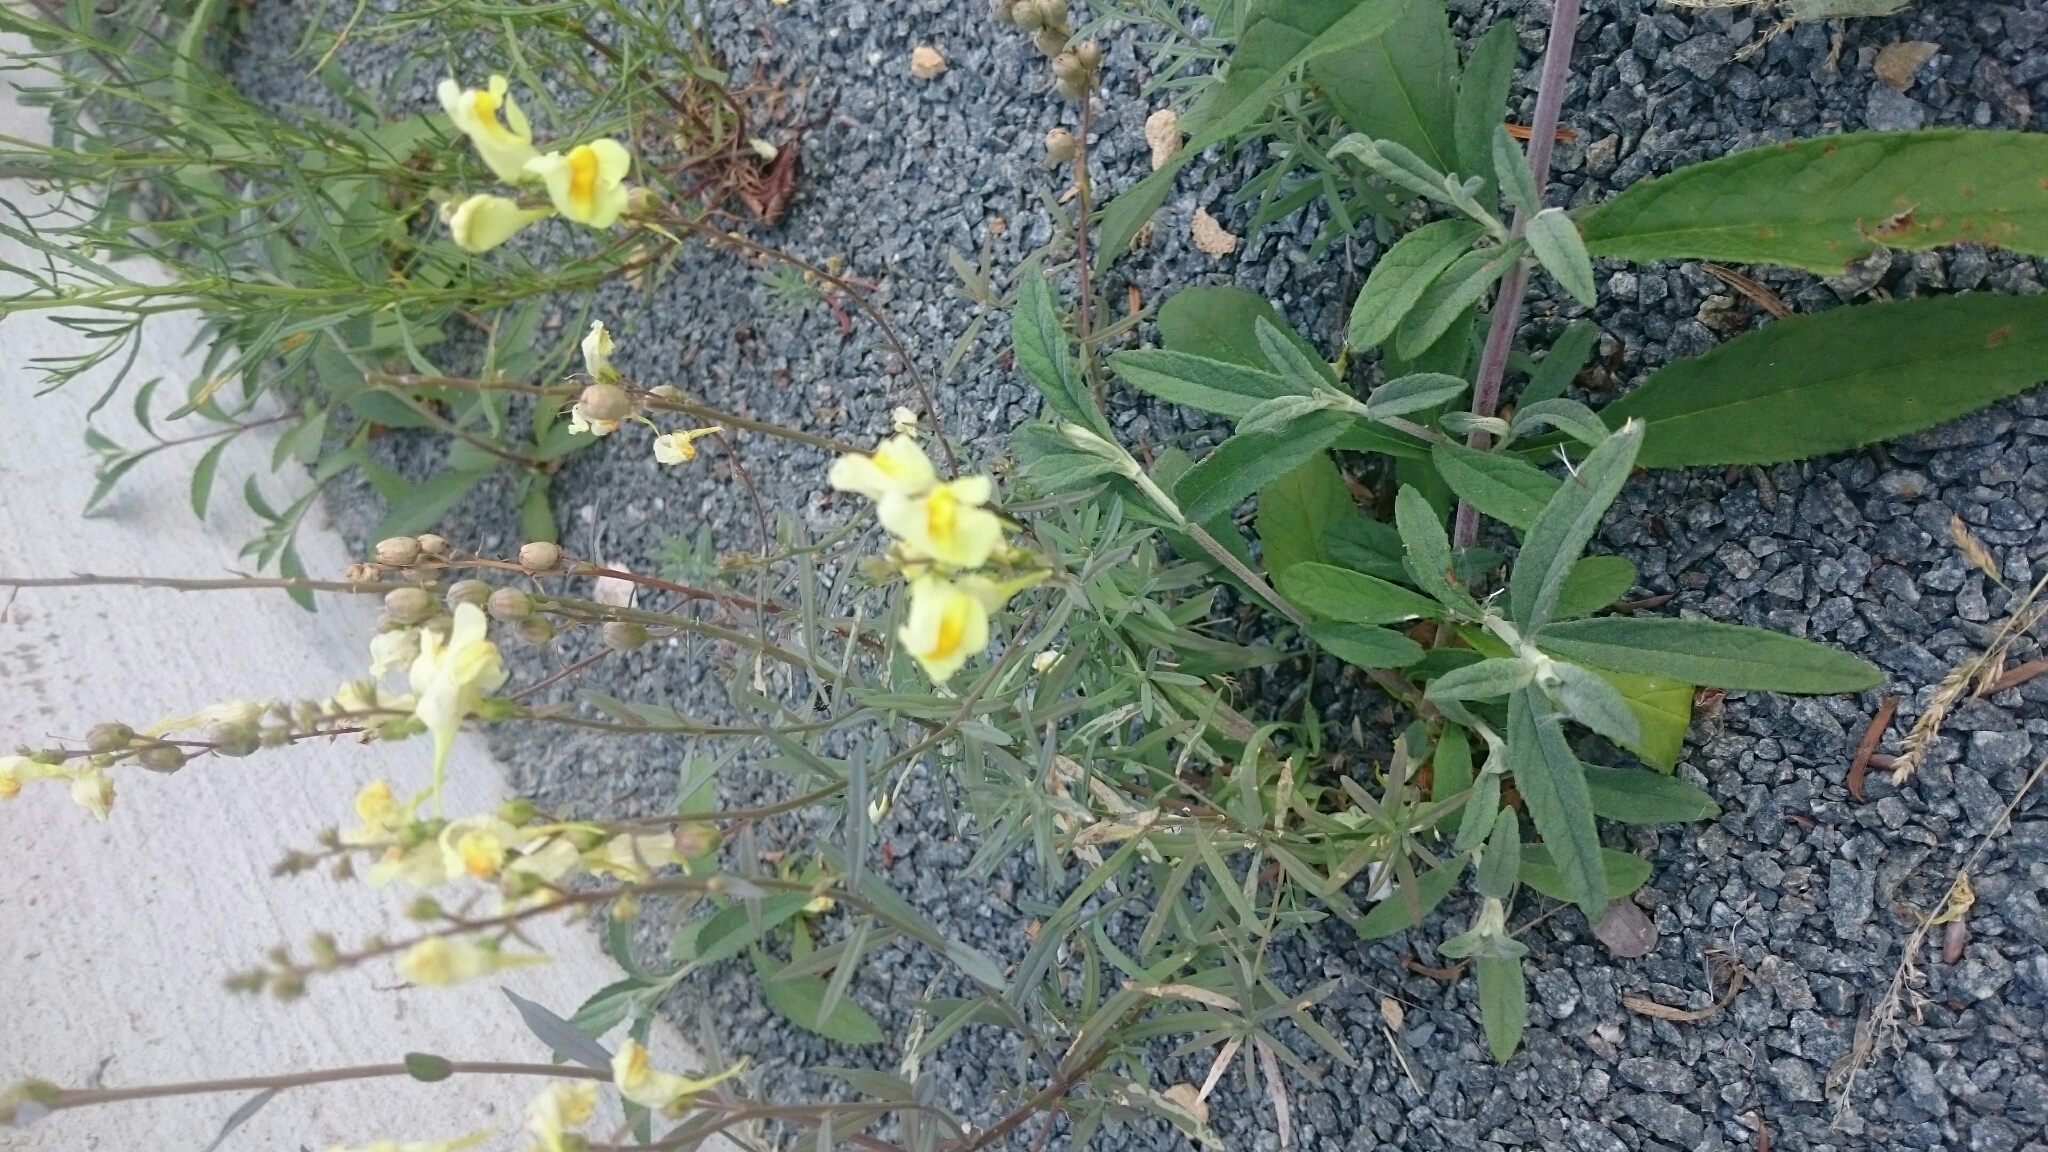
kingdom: Plantae
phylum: Tracheophyta
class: Magnoliopsida
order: Lamiales
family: Plantaginaceae
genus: Linaria
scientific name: Linaria vulgaris
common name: Butter and eggs
